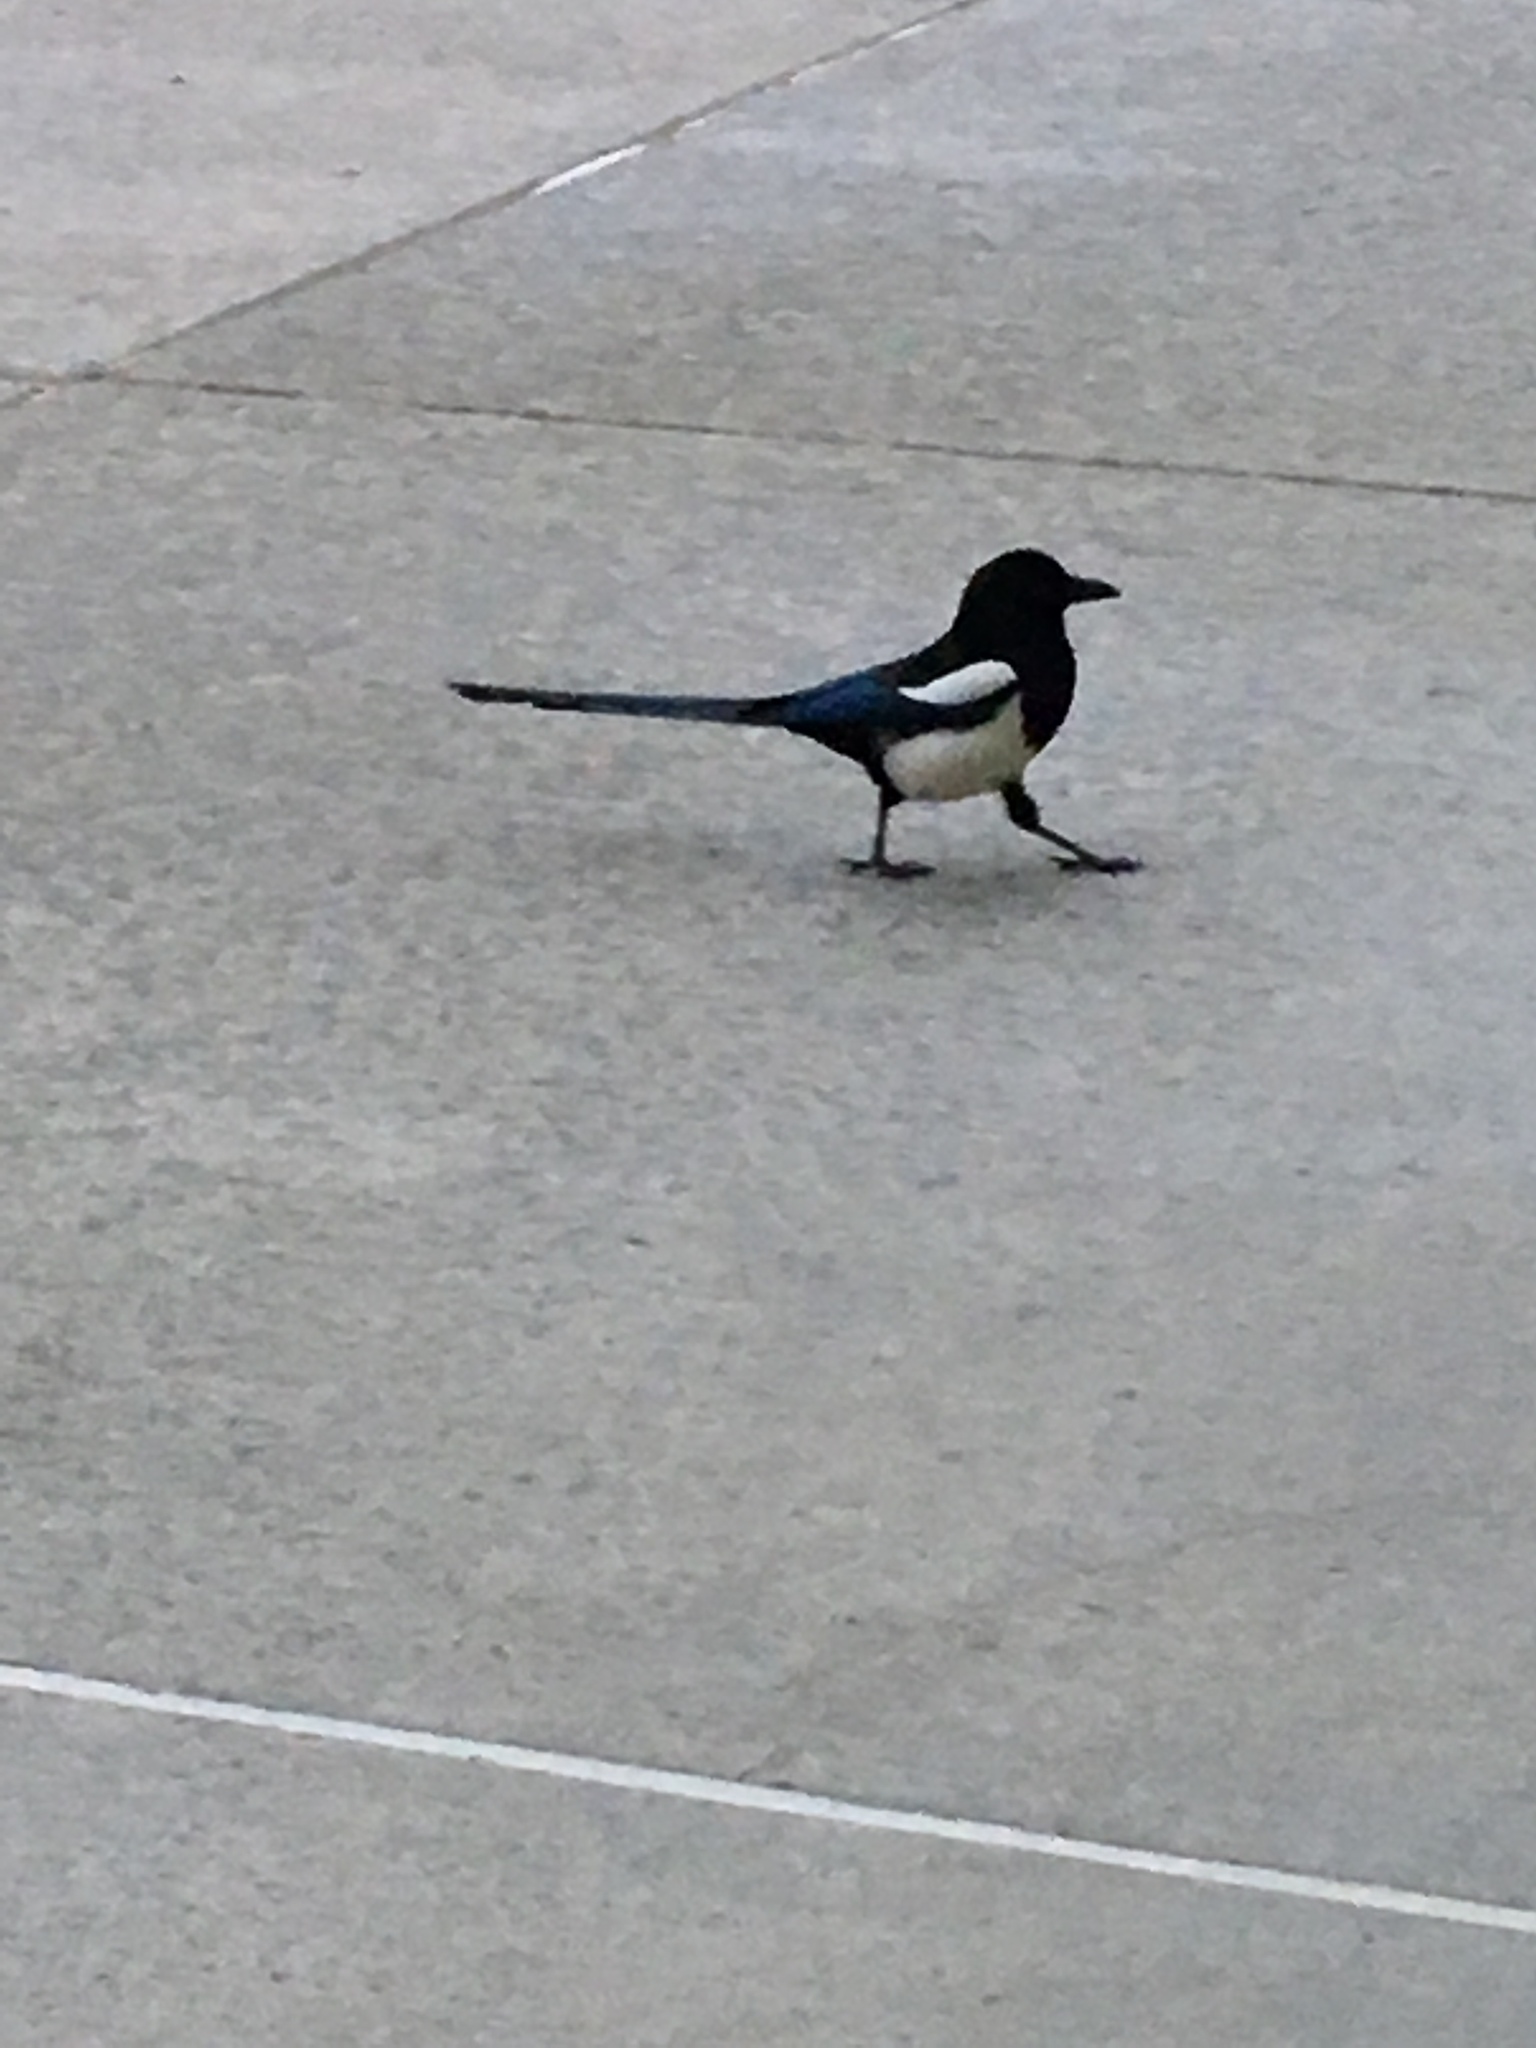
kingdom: Animalia
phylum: Chordata
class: Aves
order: Passeriformes
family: Corvidae
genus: Pica
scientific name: Pica hudsonia
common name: Black-billed magpie
